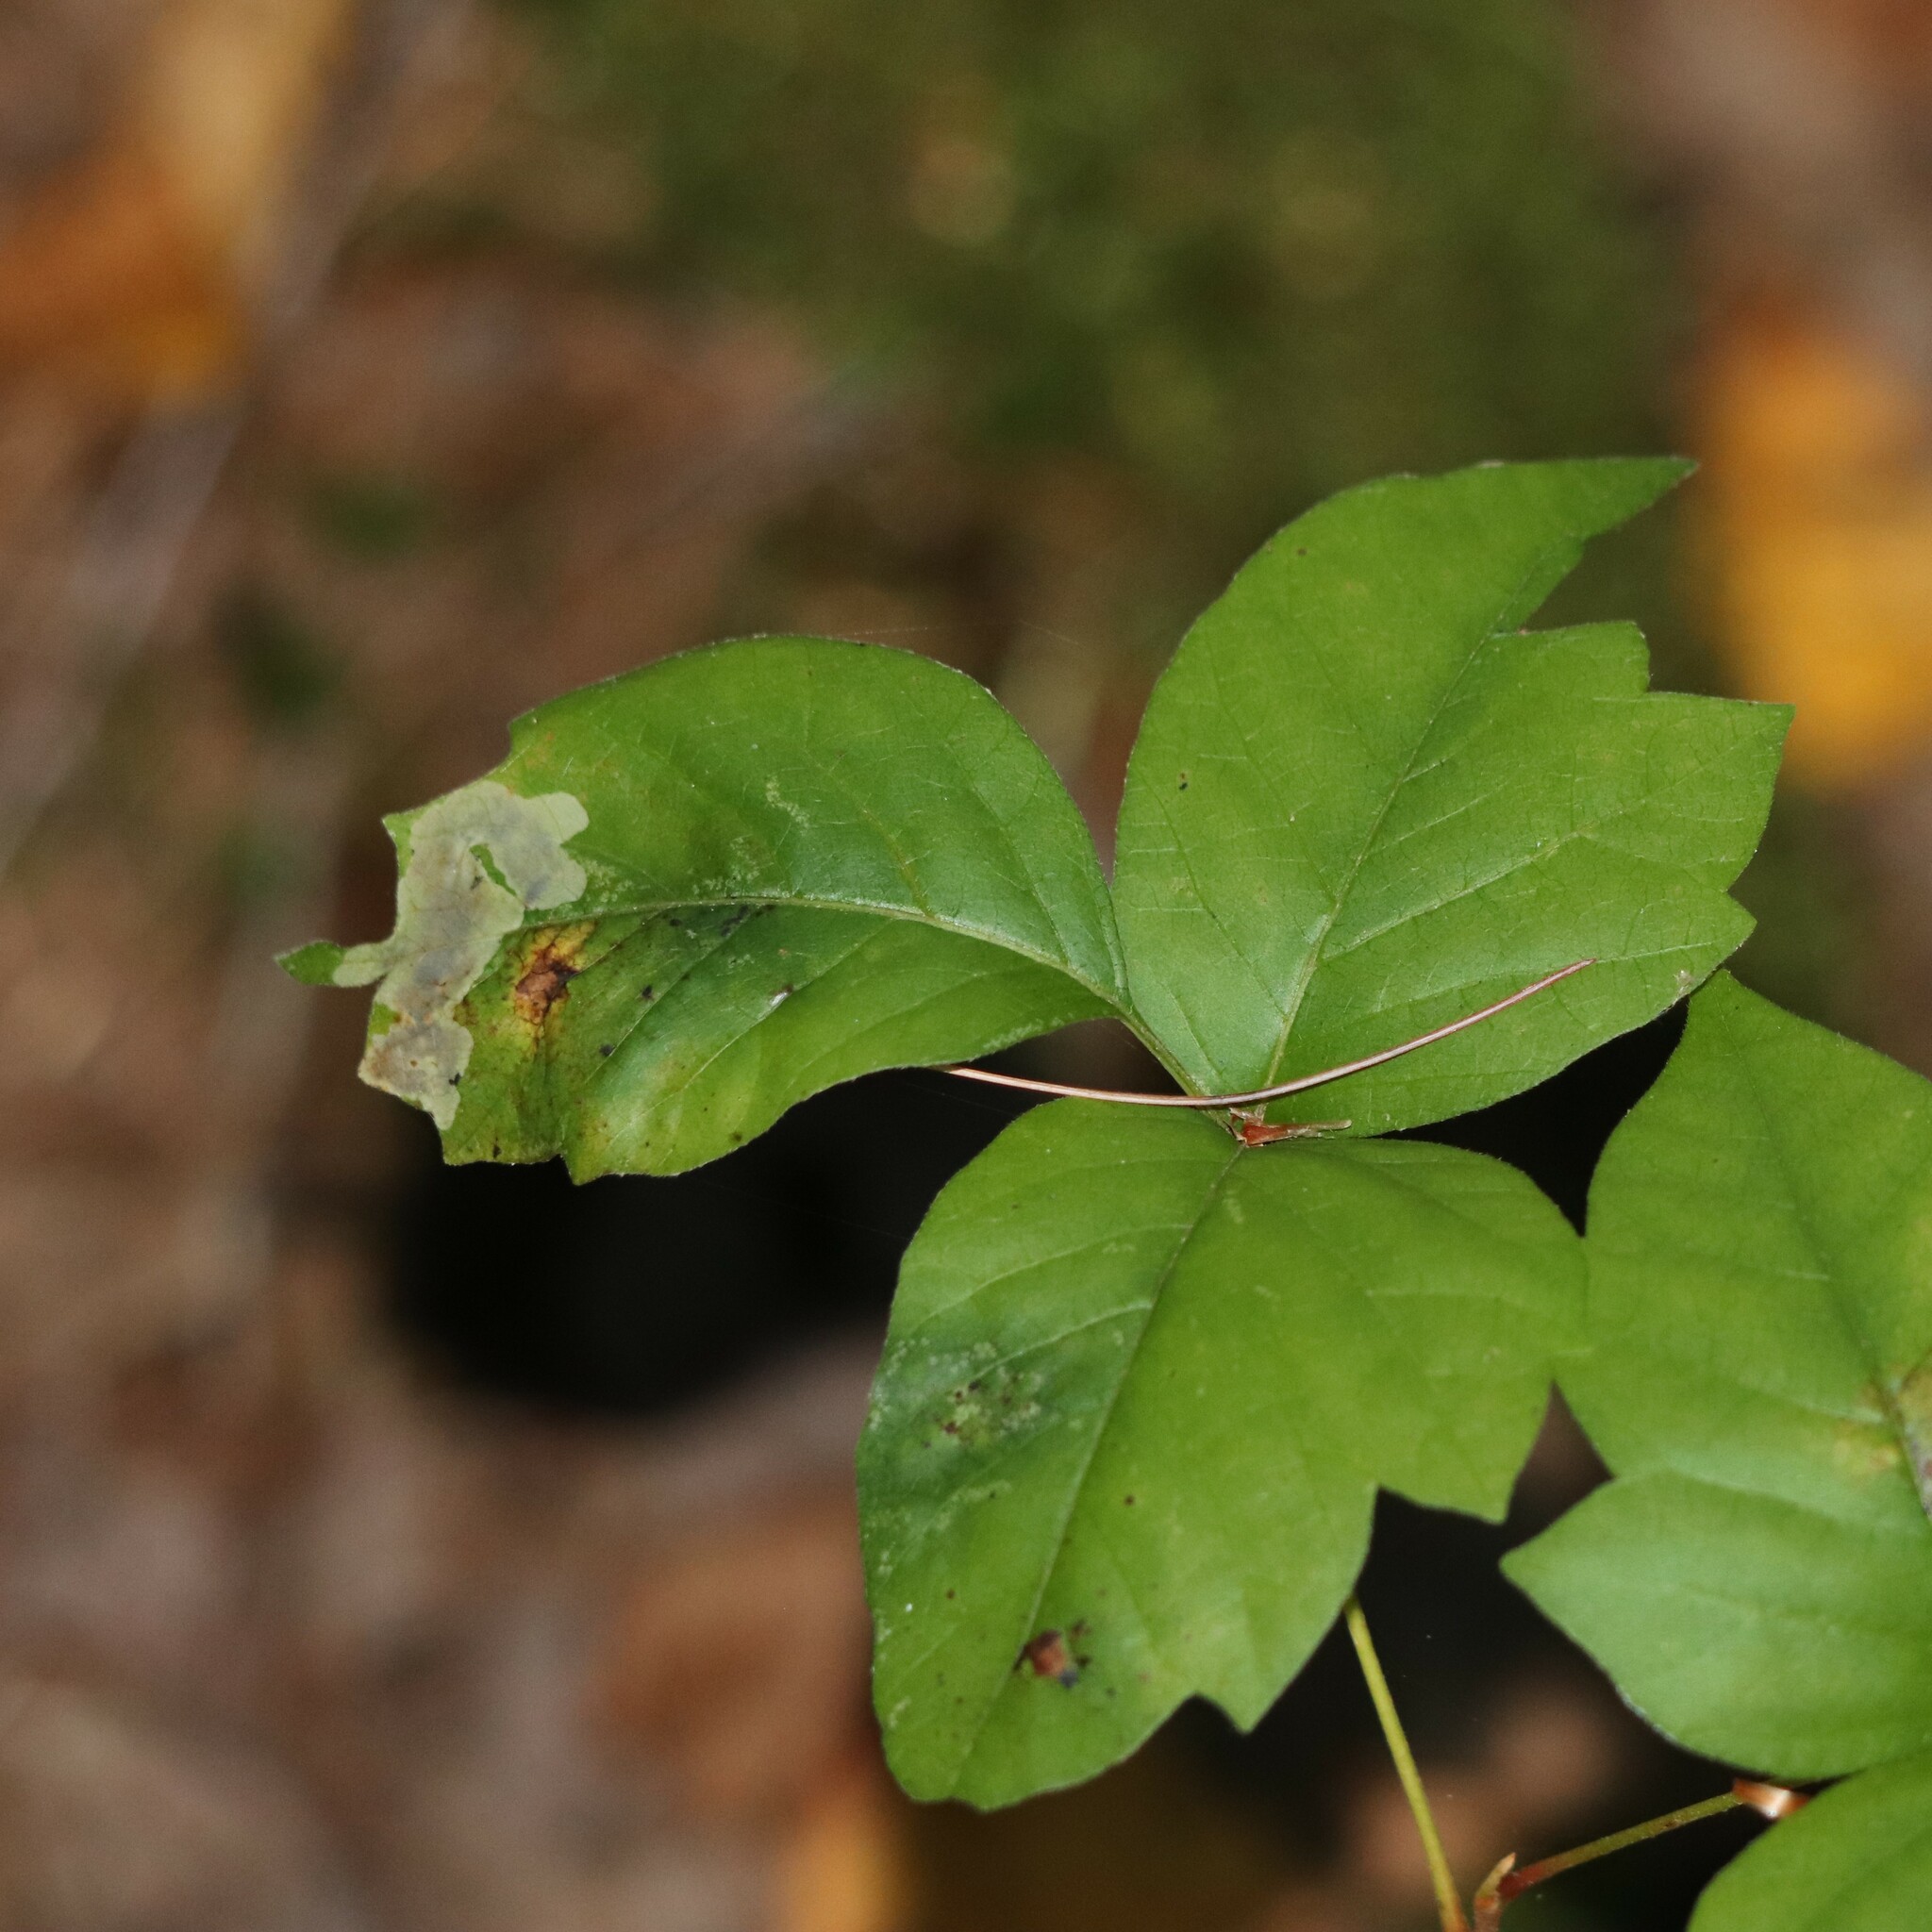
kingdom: Animalia
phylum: Arthropoda
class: Insecta
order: Lepidoptera
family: Gracillariidae
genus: Cameraria
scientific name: Cameraria guttifinitella
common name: Poison ivy leaf-miner moth
